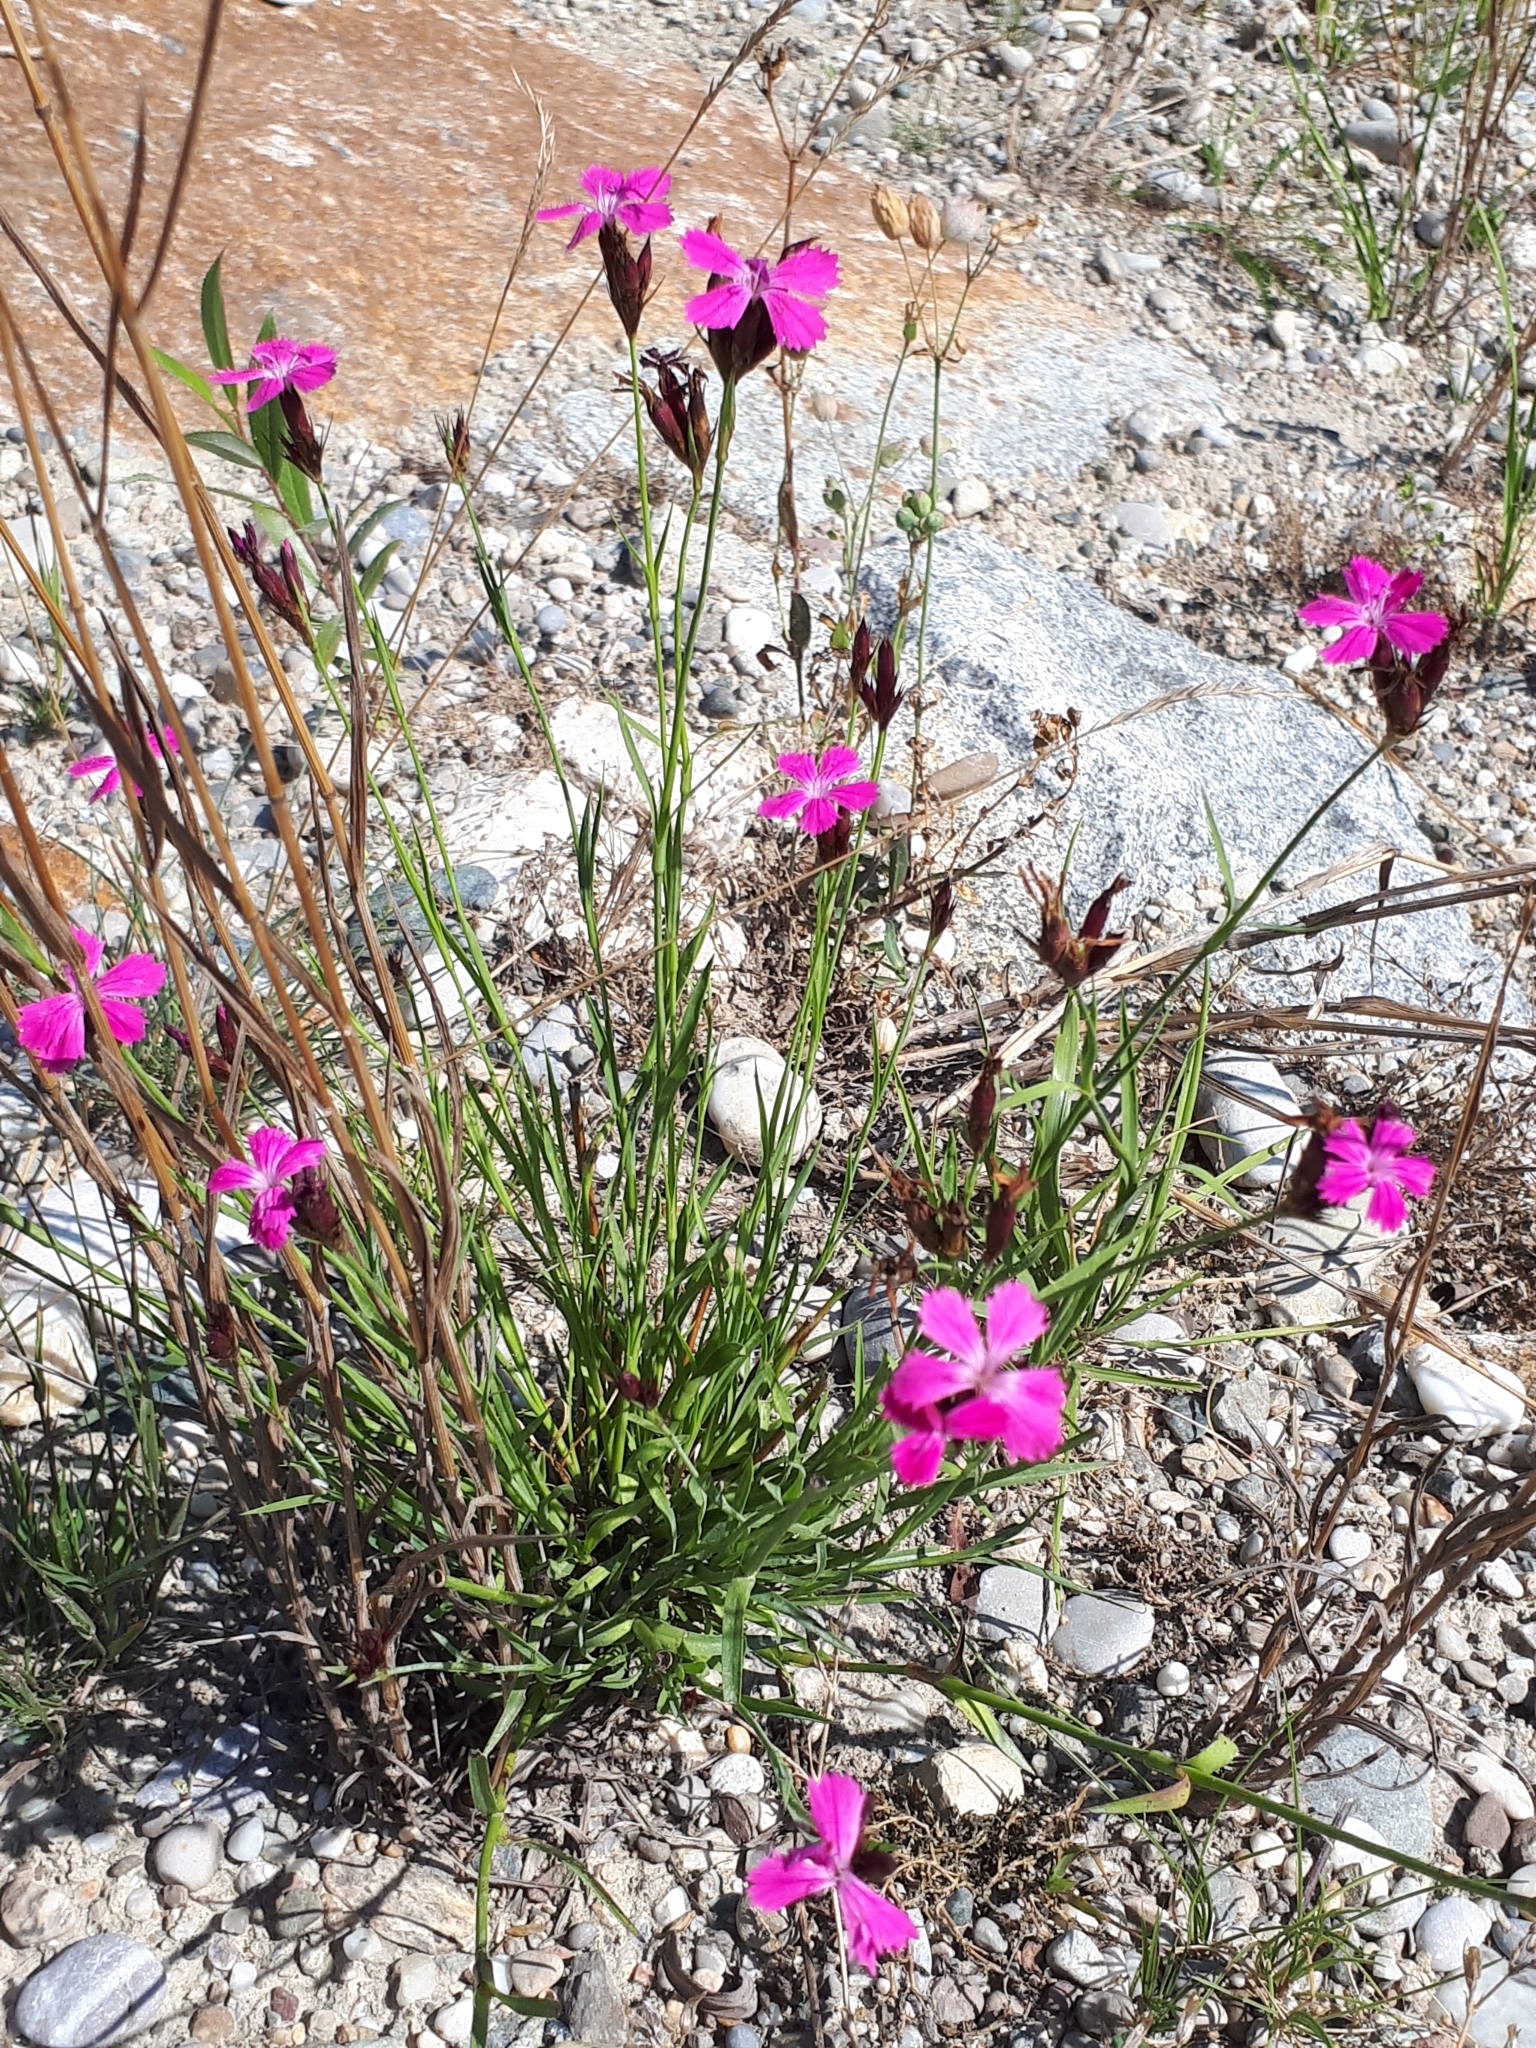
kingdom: Plantae
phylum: Tracheophyta
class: Magnoliopsida
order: Caryophyllales
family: Caryophyllaceae
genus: Dianthus
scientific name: Dianthus carthusianorum
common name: Carthusian pink
